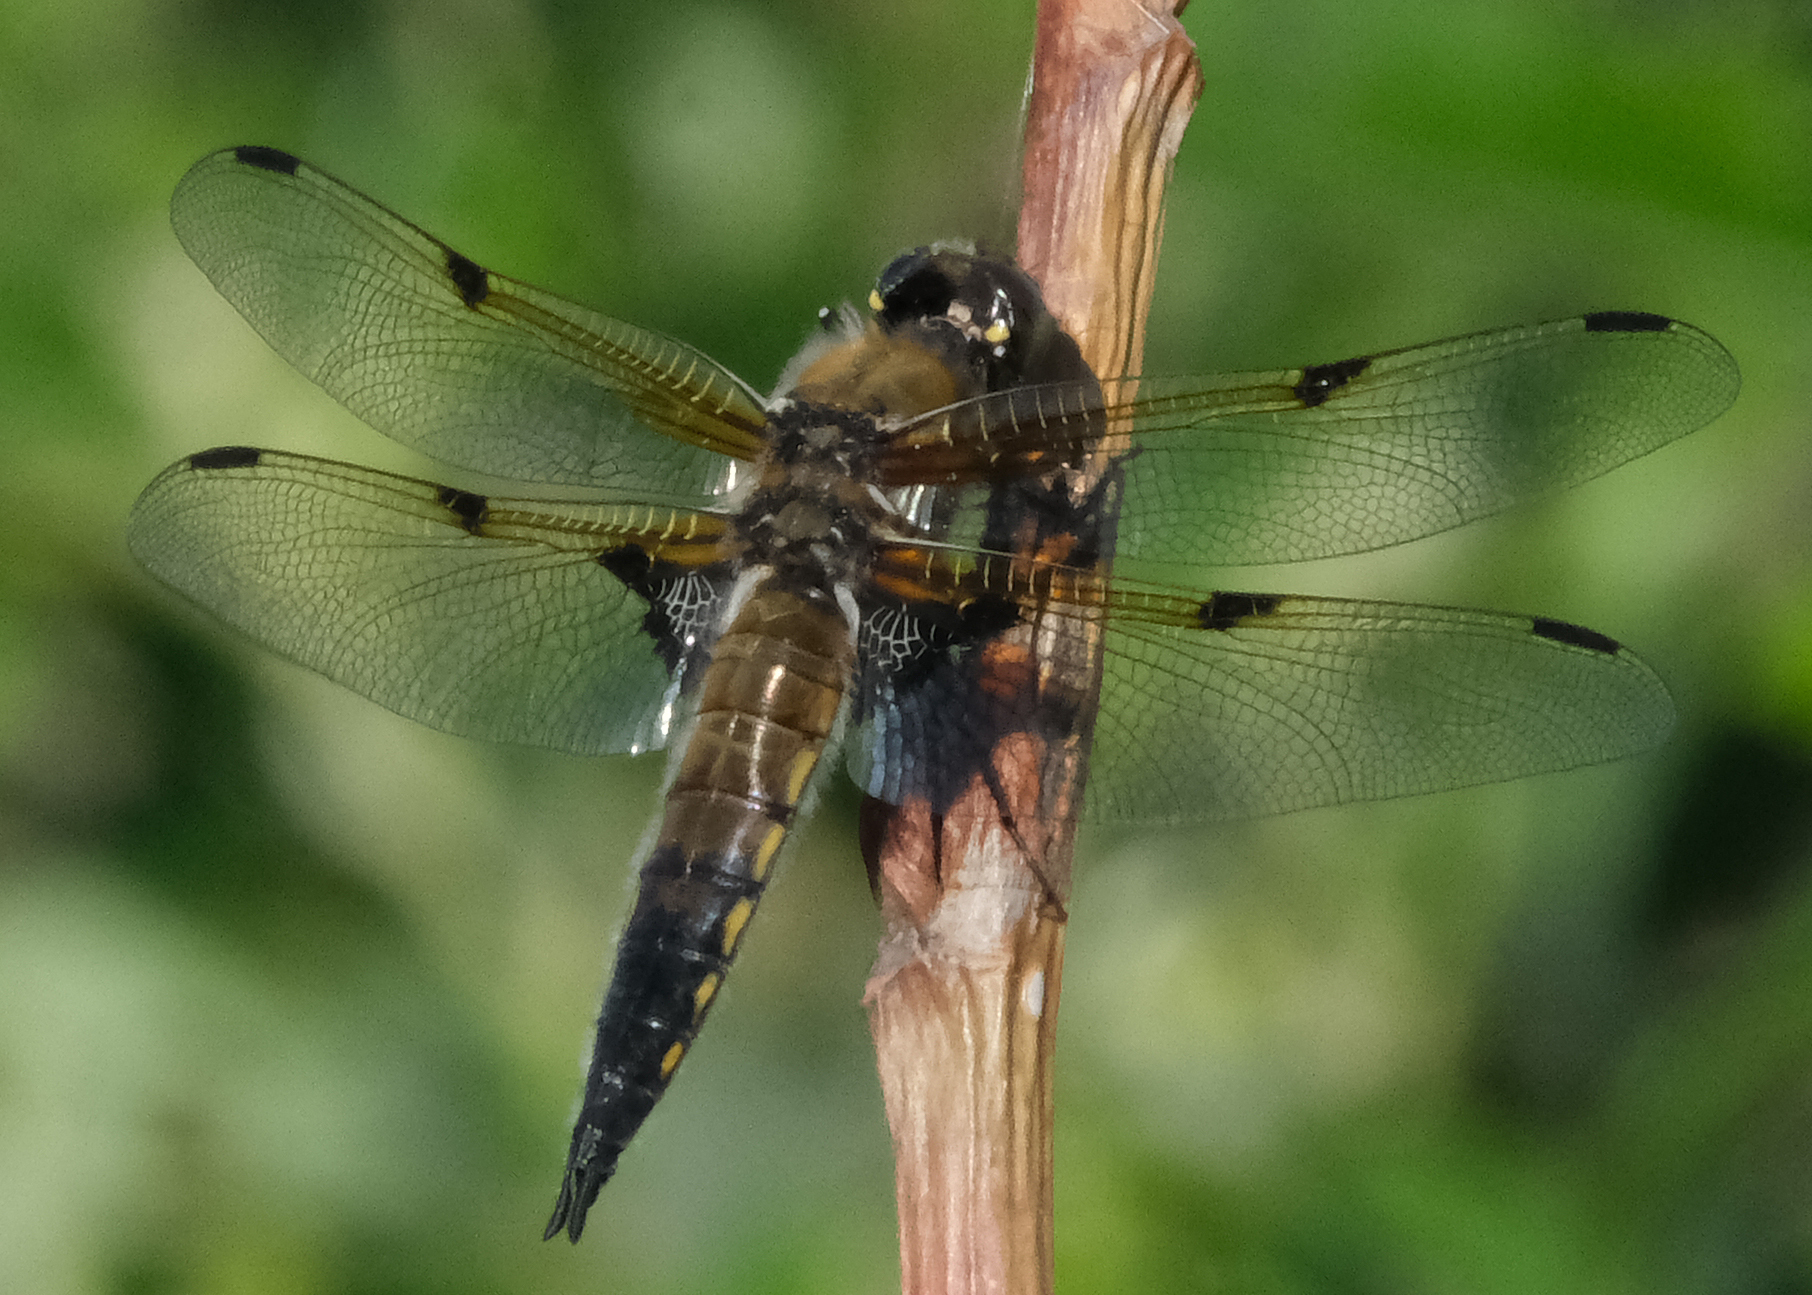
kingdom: Animalia
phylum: Arthropoda
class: Insecta
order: Odonata
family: Libellulidae
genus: Libellula
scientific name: Libellula quadrimaculata
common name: Four-spotted chaser
